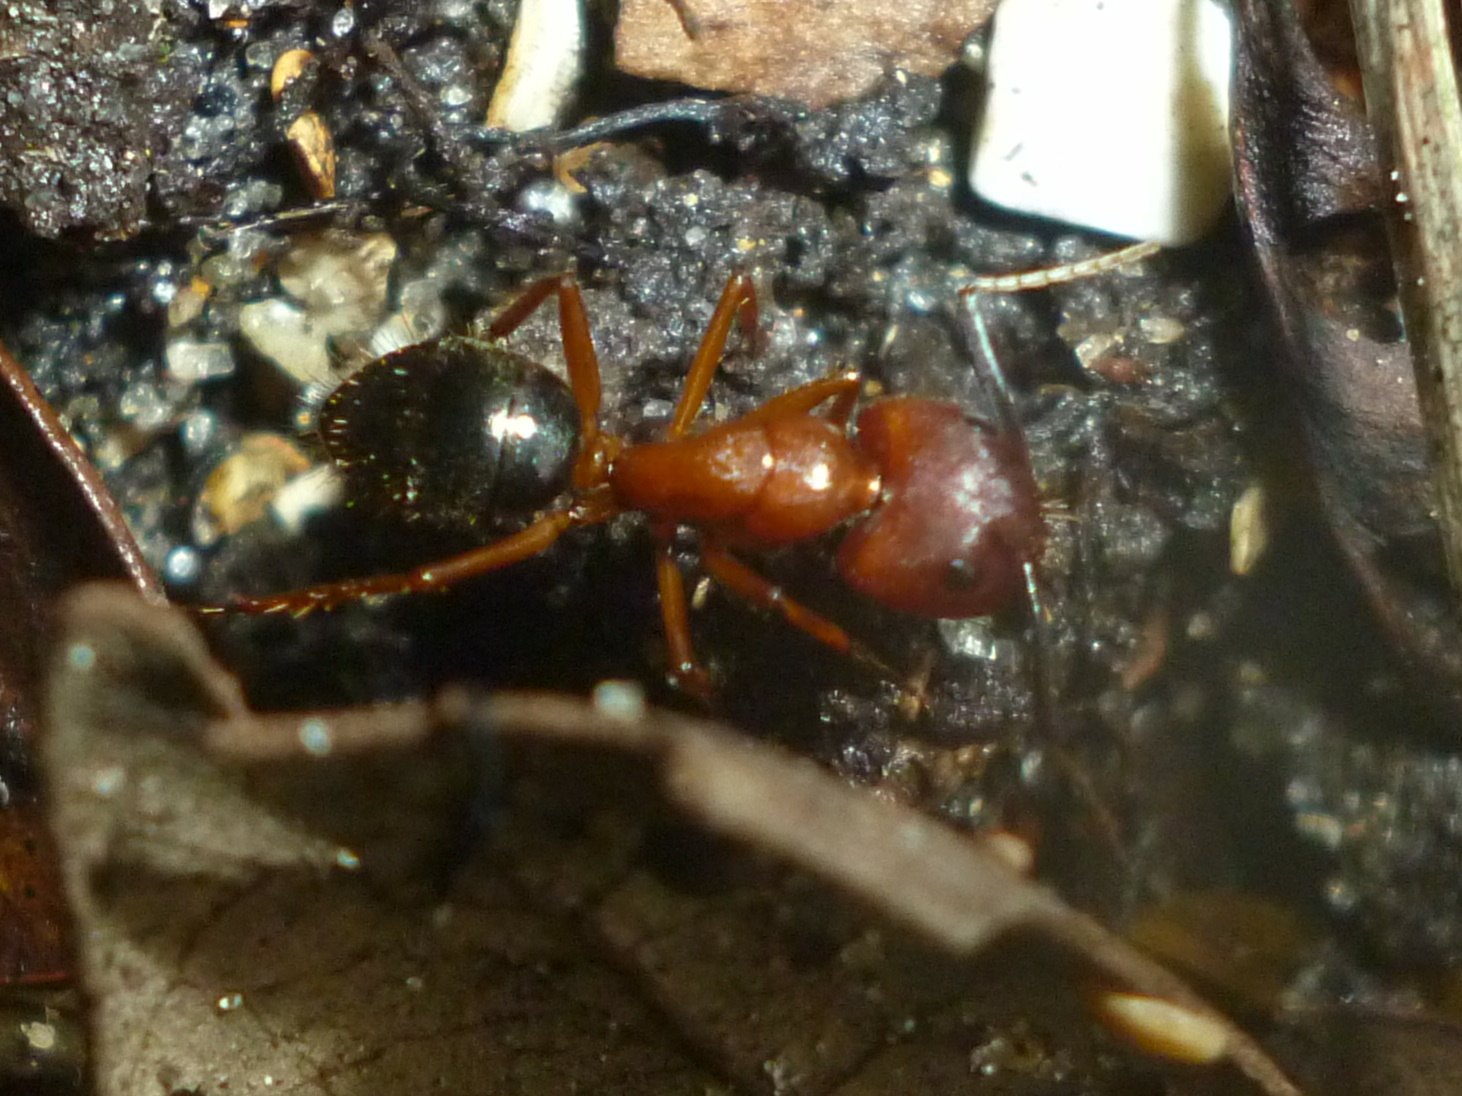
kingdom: Animalia
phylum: Arthropoda
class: Insecta
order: Hymenoptera
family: Formicidae
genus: Camponotus
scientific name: Camponotus floridanus
